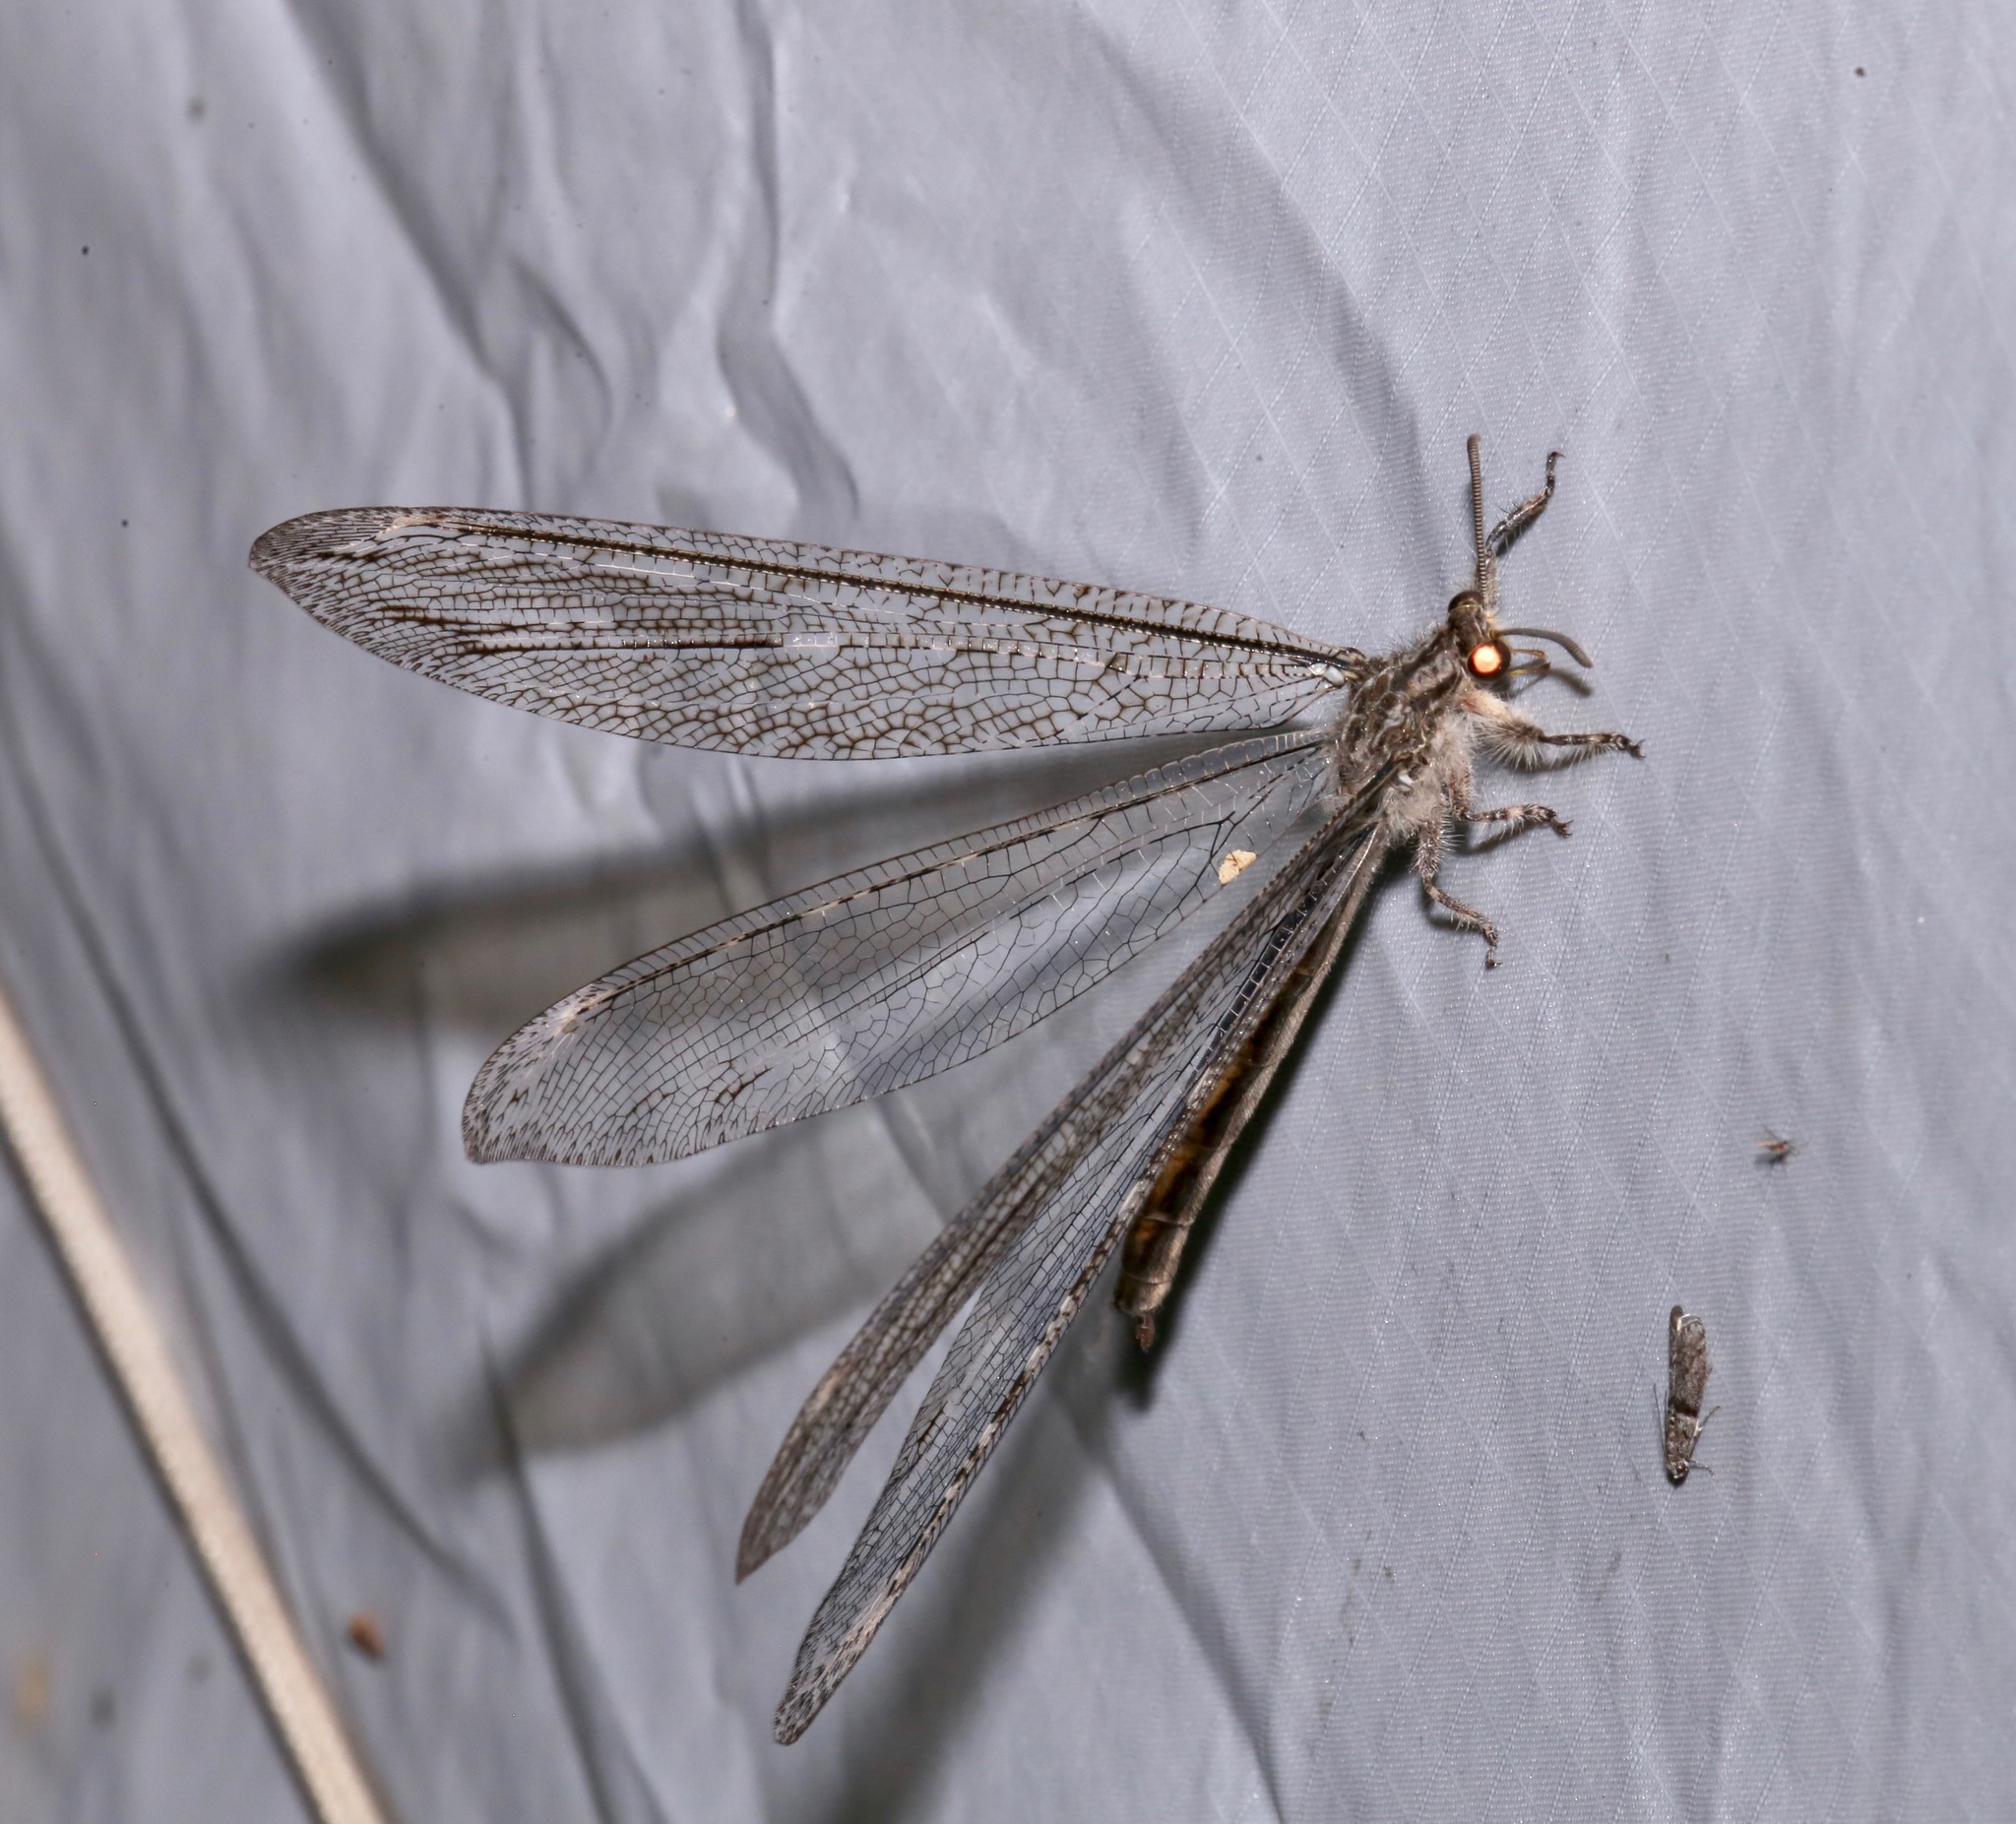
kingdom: Animalia
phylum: Arthropoda
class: Insecta
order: Neuroptera
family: Myrmeleontidae
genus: Vella
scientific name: Vella fallax
